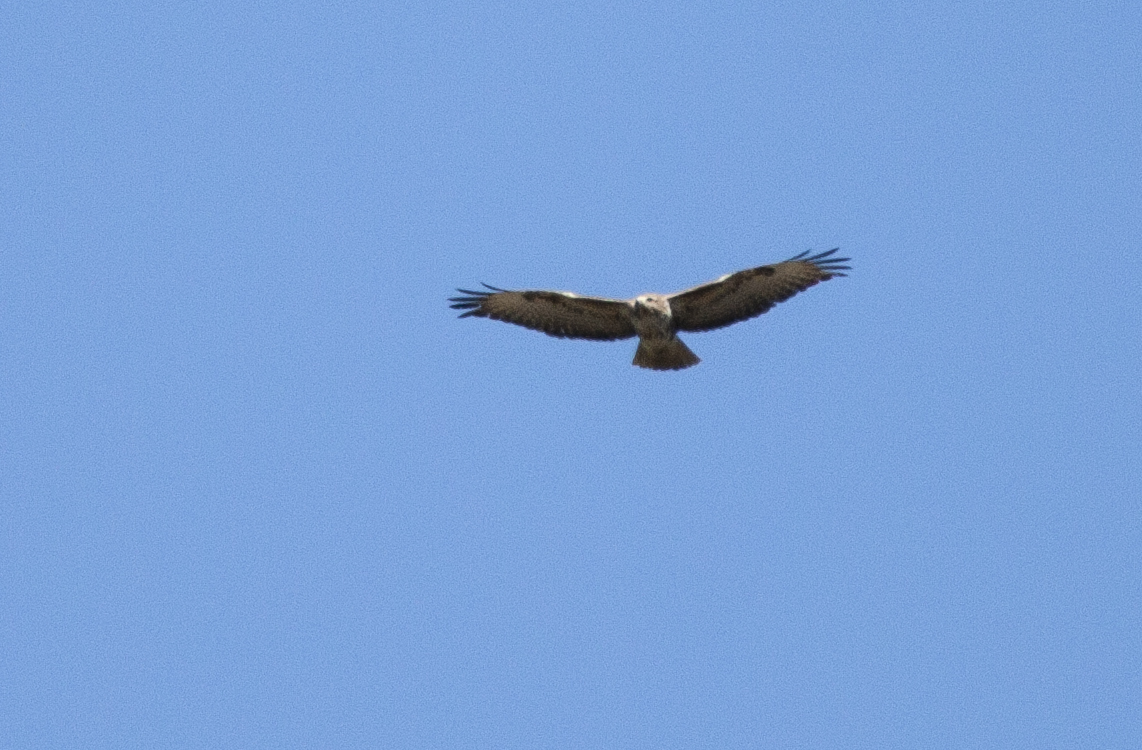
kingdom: Animalia
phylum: Chordata
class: Aves
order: Accipitriformes
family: Accipitridae
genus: Buteo
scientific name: Buteo buteo
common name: Common buzzard
